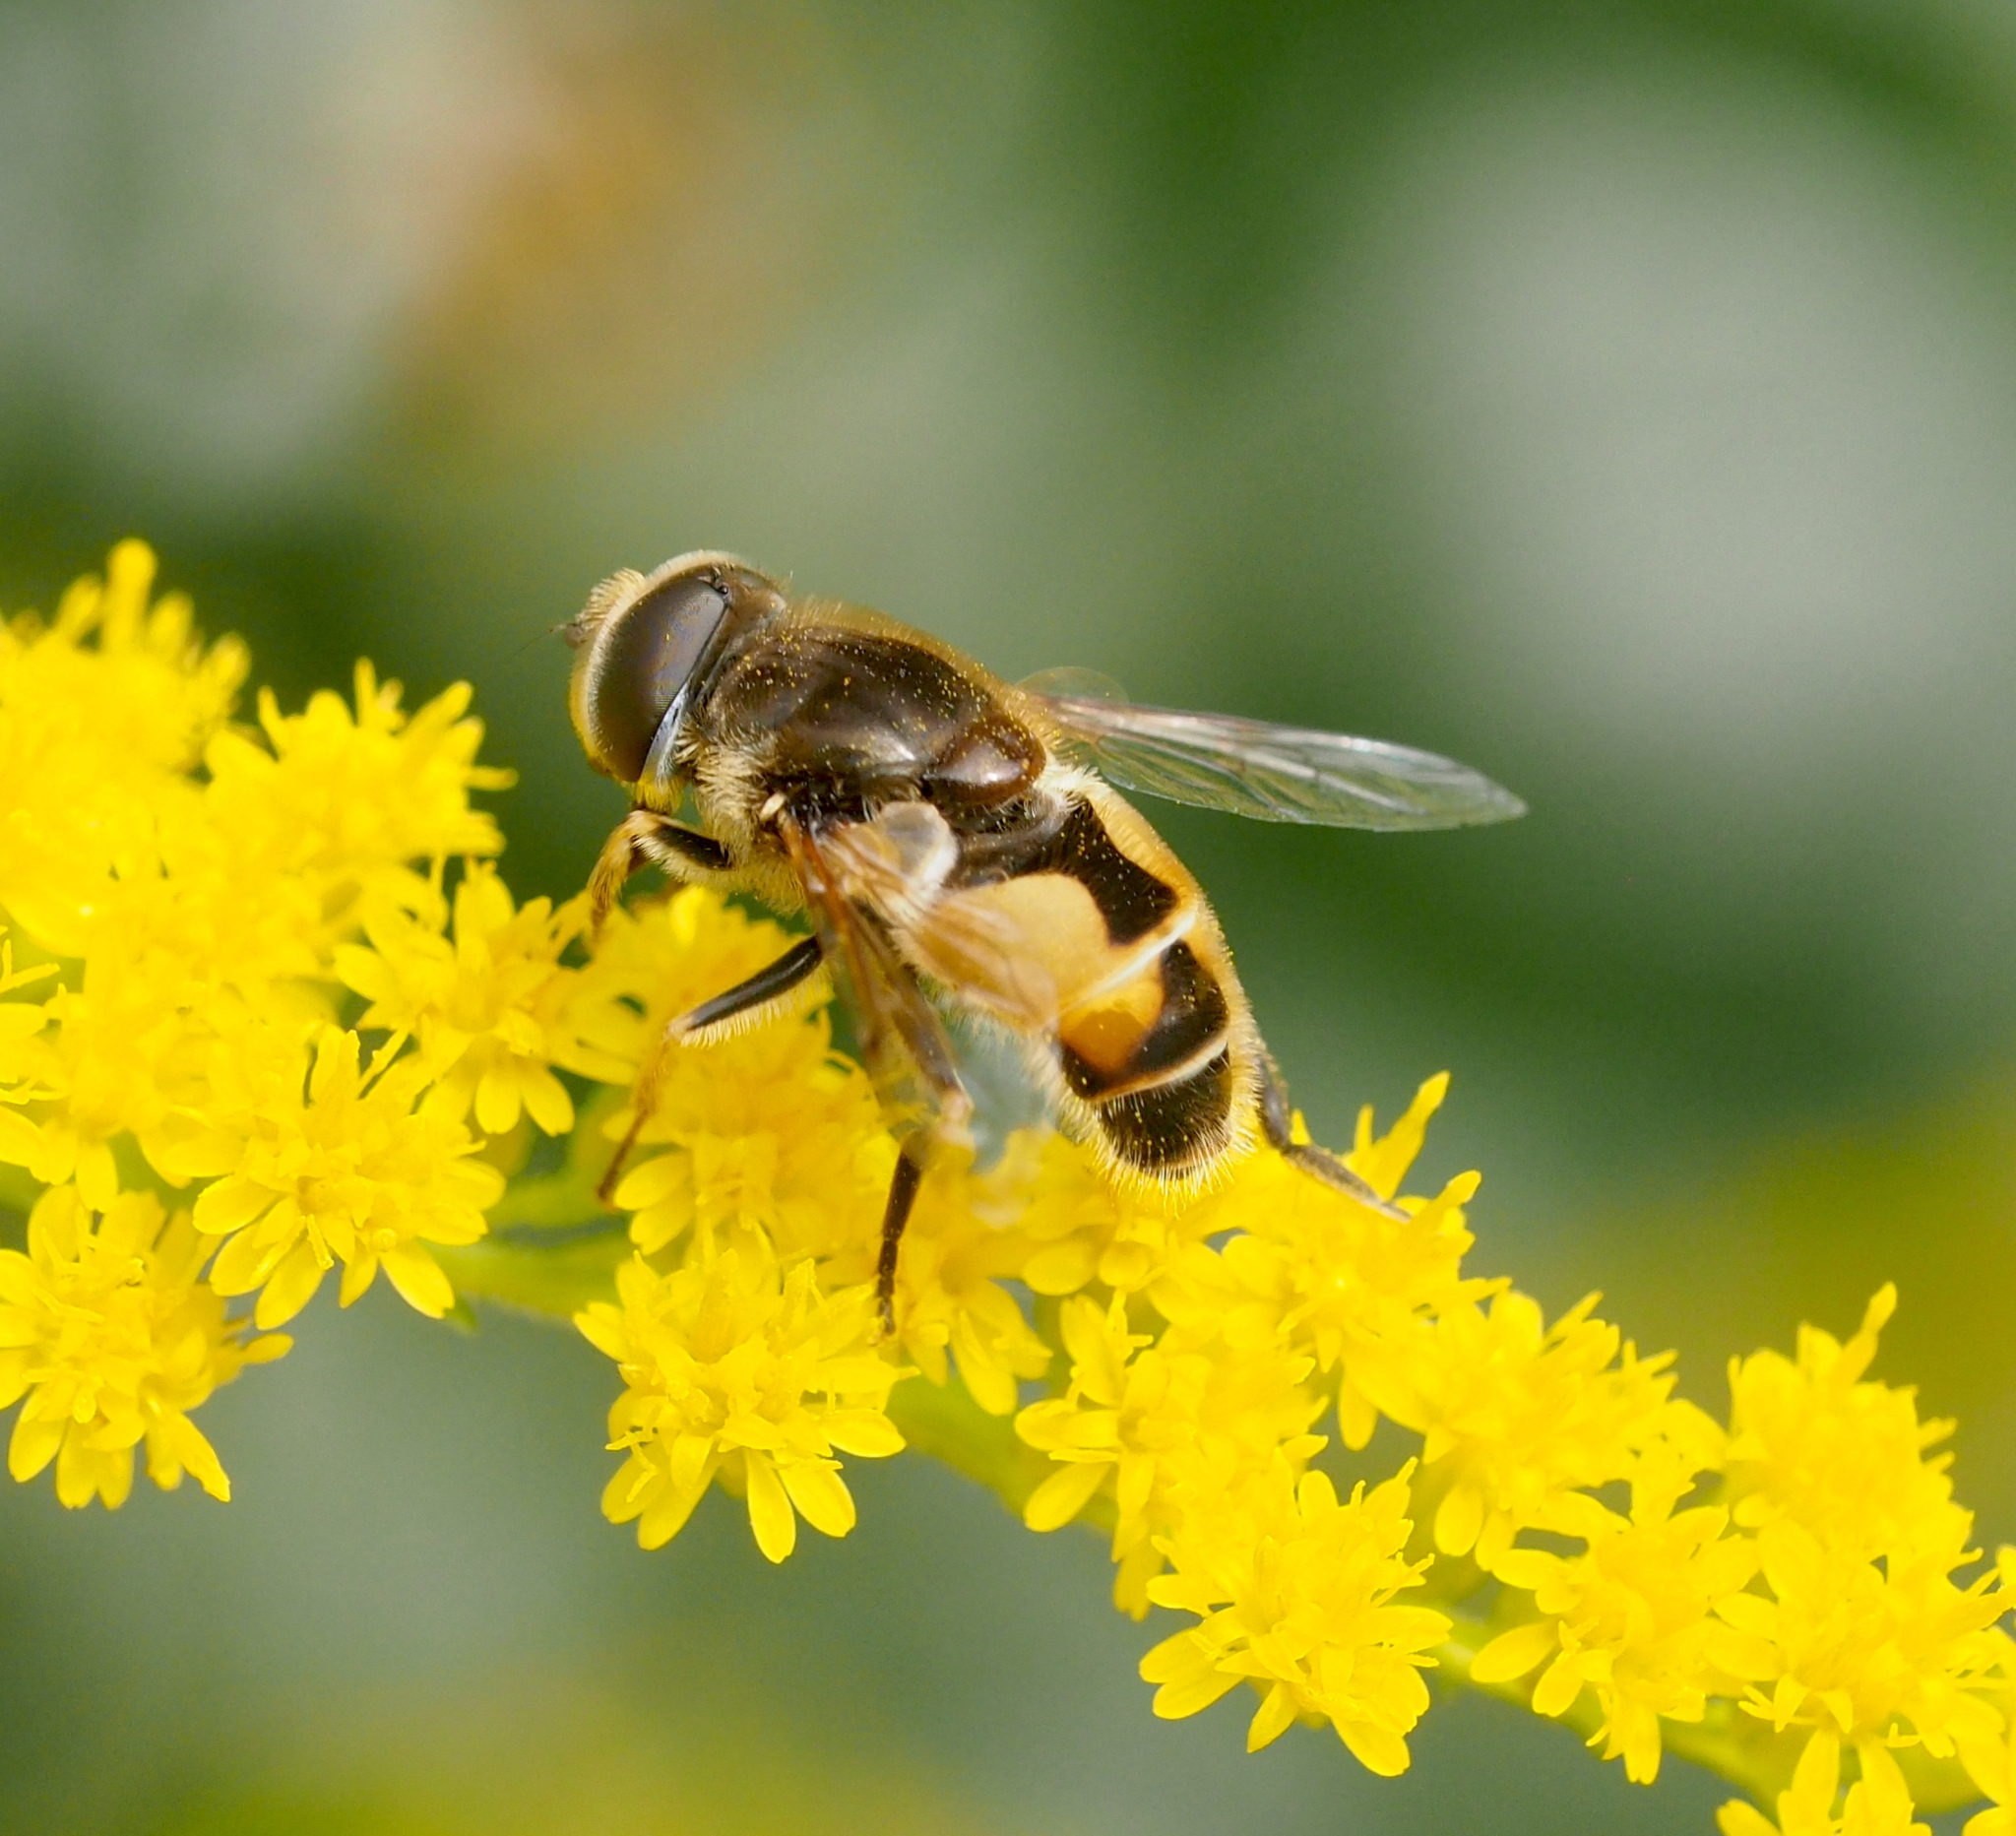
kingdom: Animalia
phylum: Arthropoda
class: Insecta
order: Diptera
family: Syrphidae
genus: Eristalis
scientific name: Eristalis arbustorum
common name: Hover fly
